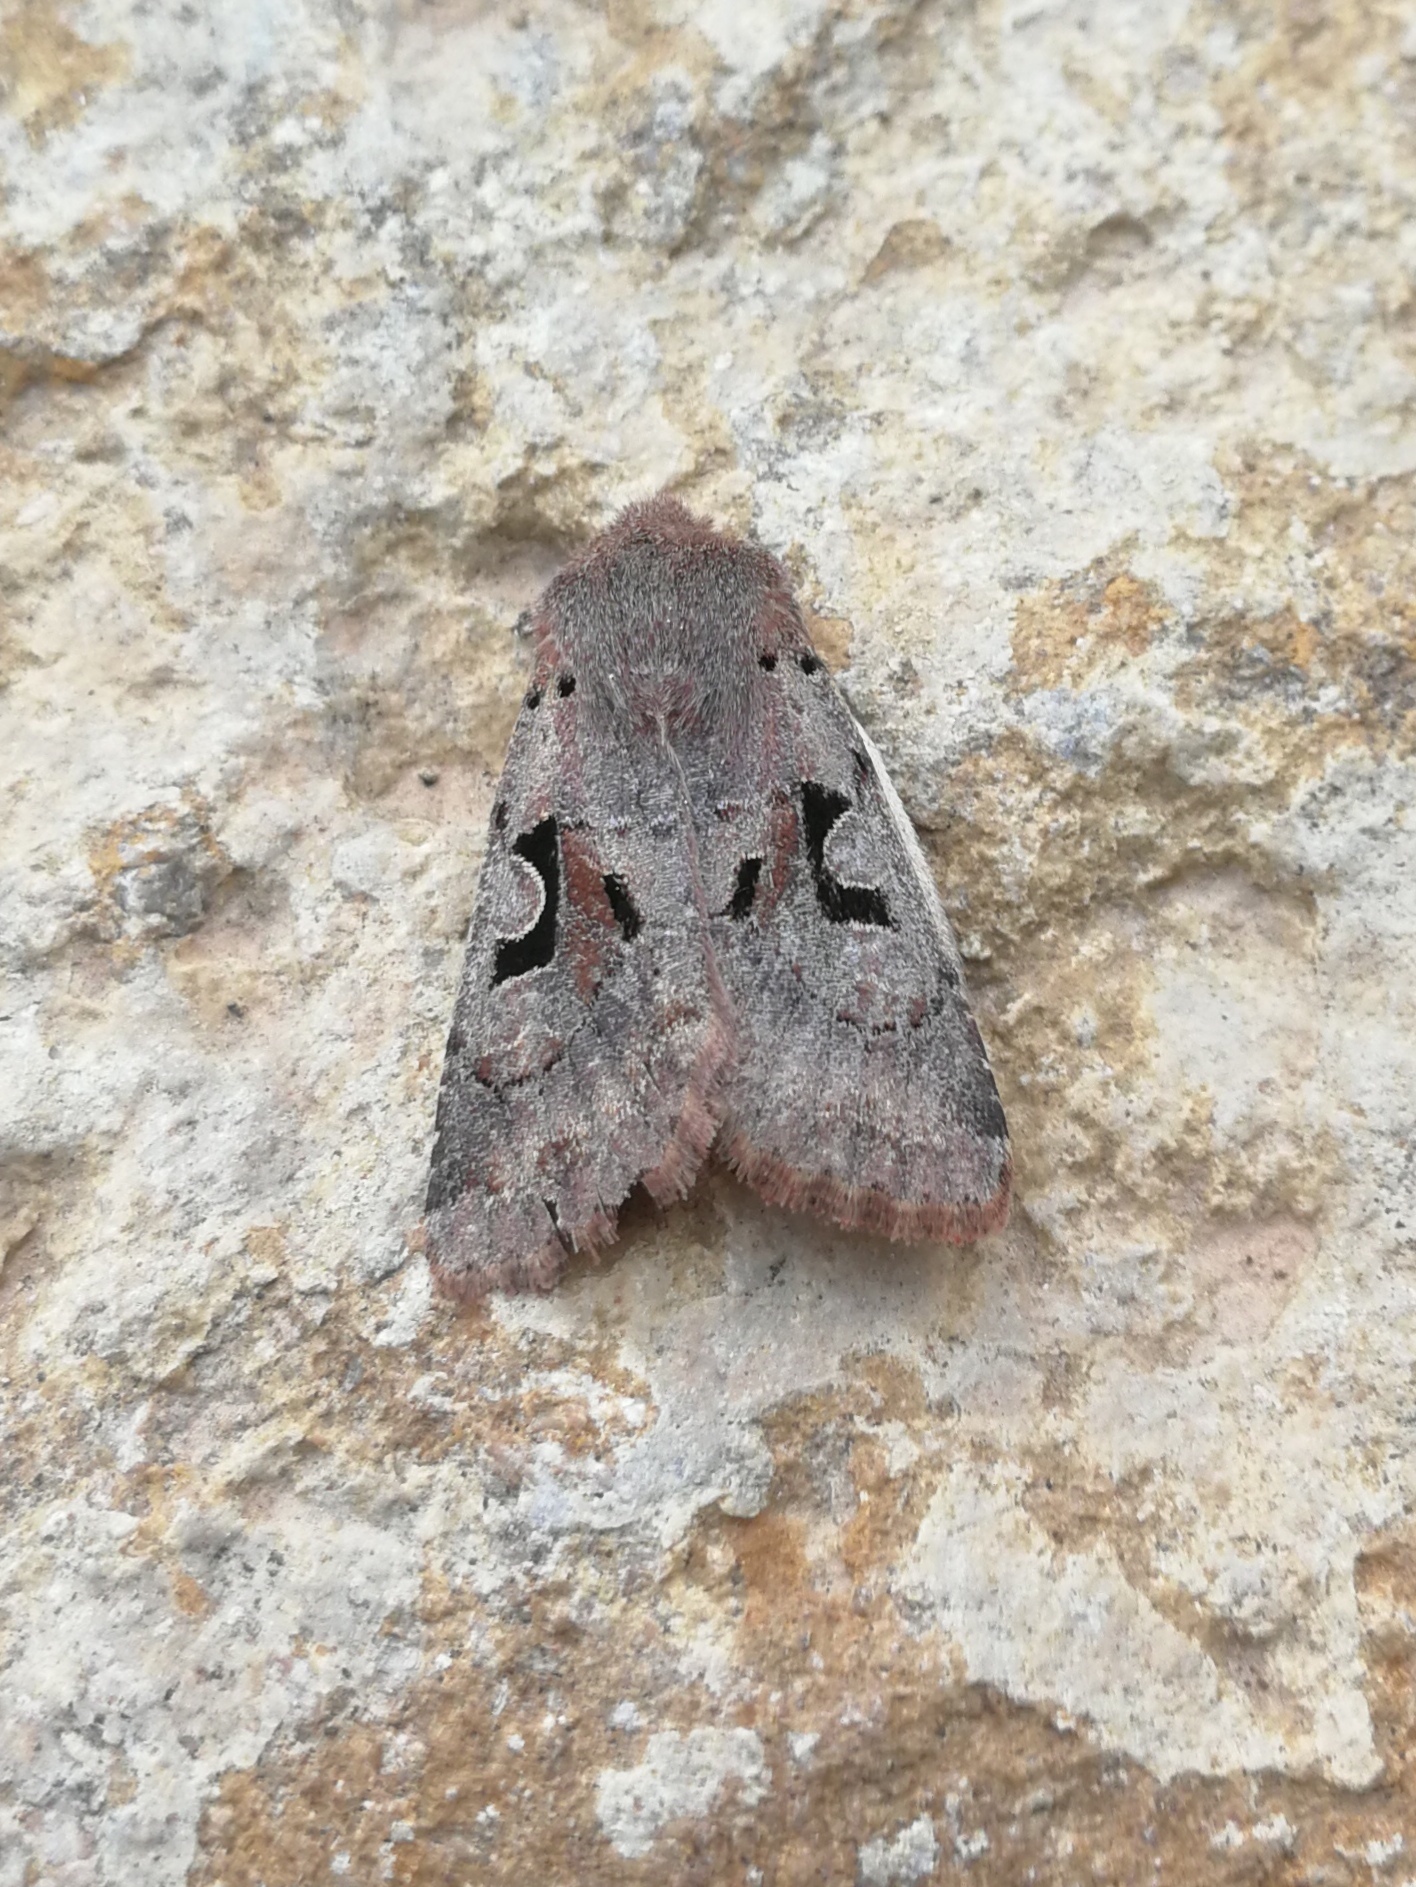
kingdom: Animalia
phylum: Arthropoda
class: Insecta
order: Lepidoptera
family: Noctuidae
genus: Orthosia
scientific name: Orthosia gothica
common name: Hebrew character
